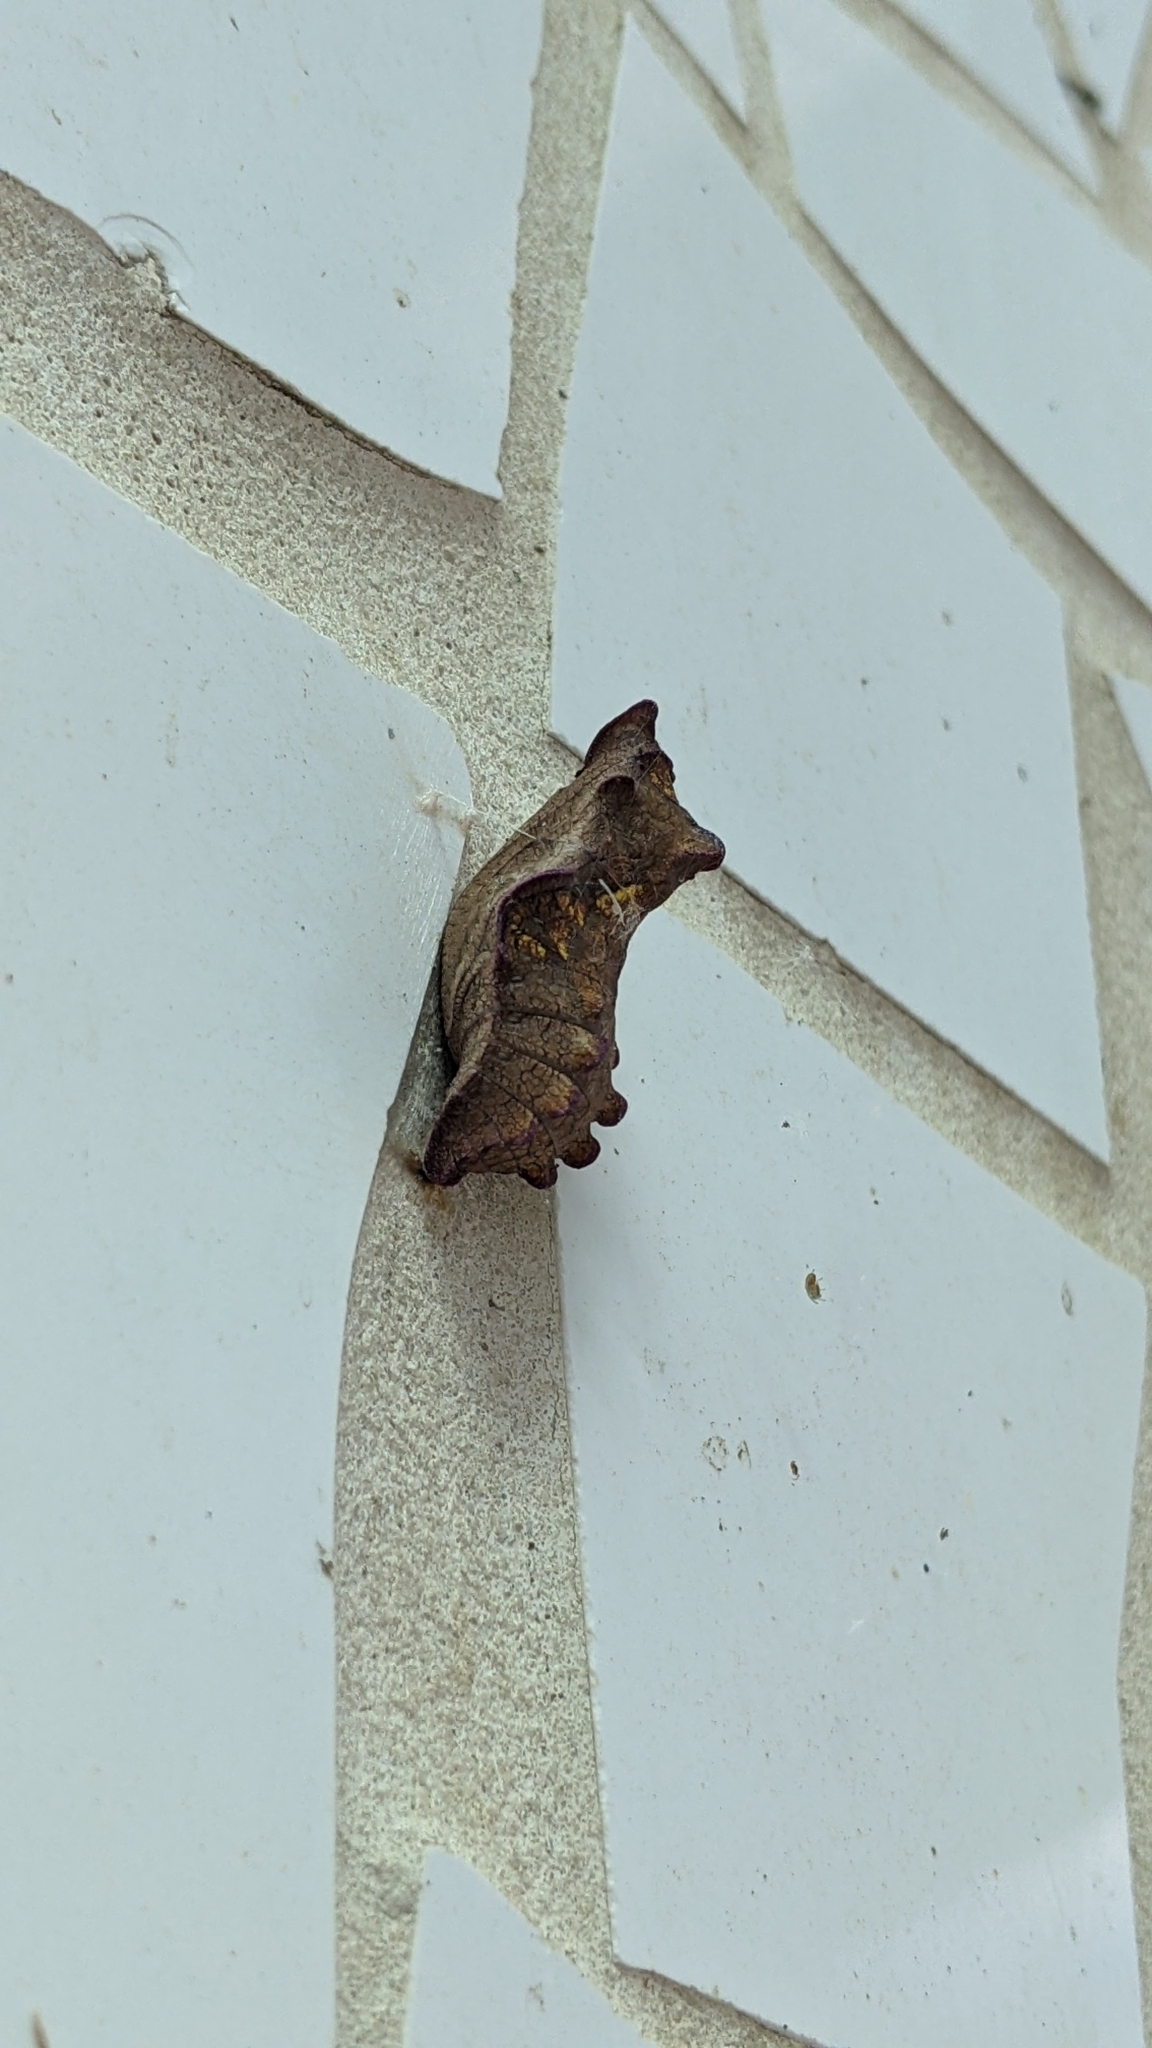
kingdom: Animalia
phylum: Arthropoda
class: Insecta
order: Lepidoptera
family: Papilionidae
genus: Battus
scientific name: Battus philenor
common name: Pipevine swallowtail
